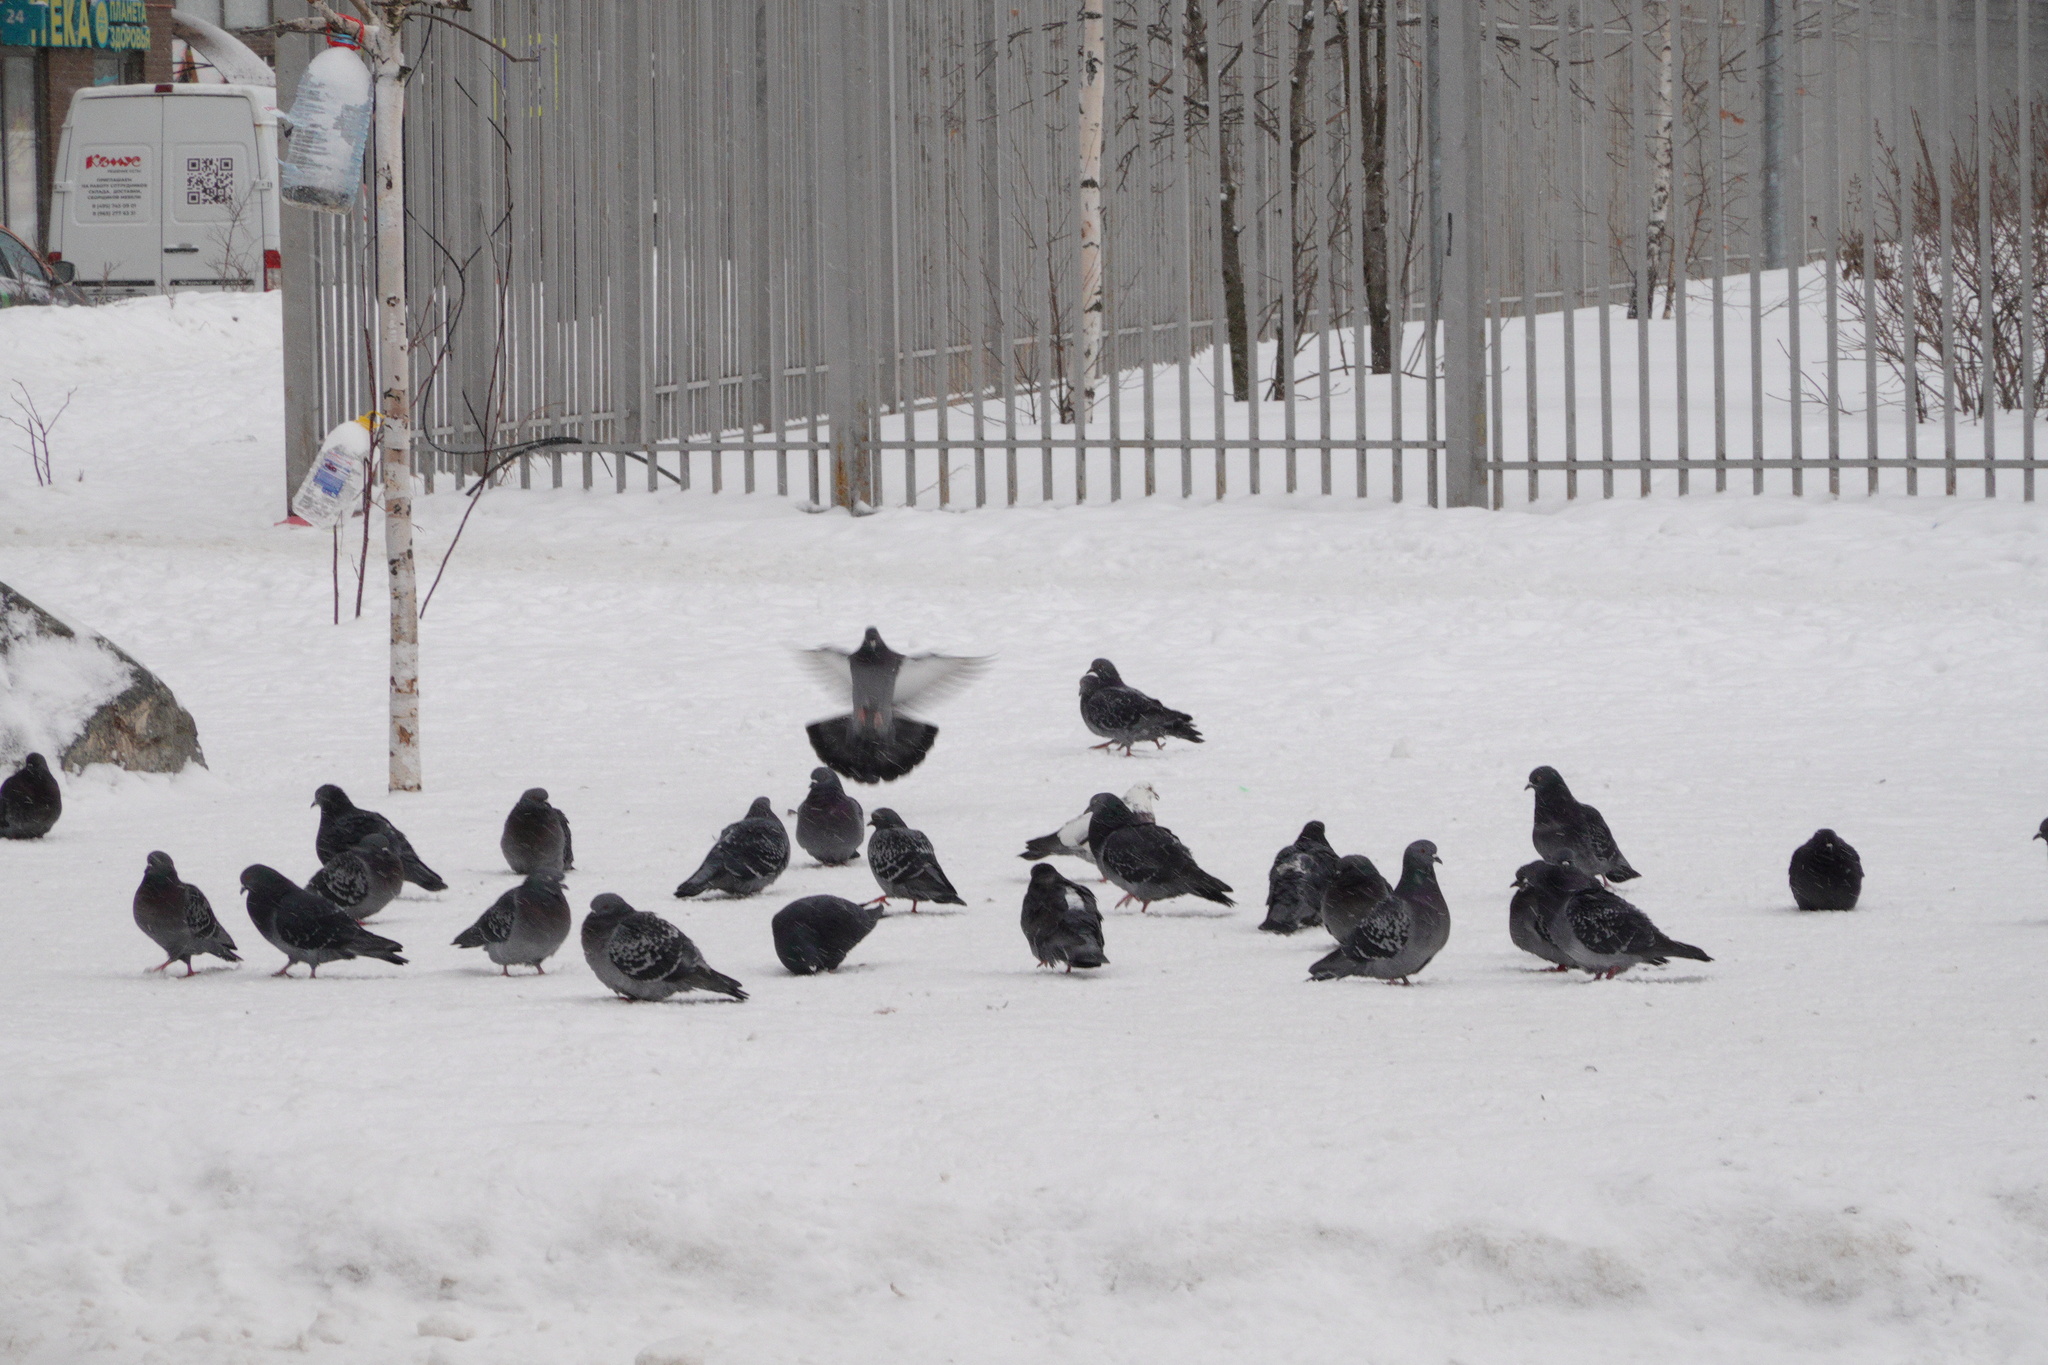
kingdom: Animalia
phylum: Chordata
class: Aves
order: Columbiformes
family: Columbidae
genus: Columba
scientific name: Columba livia
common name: Rock pigeon
